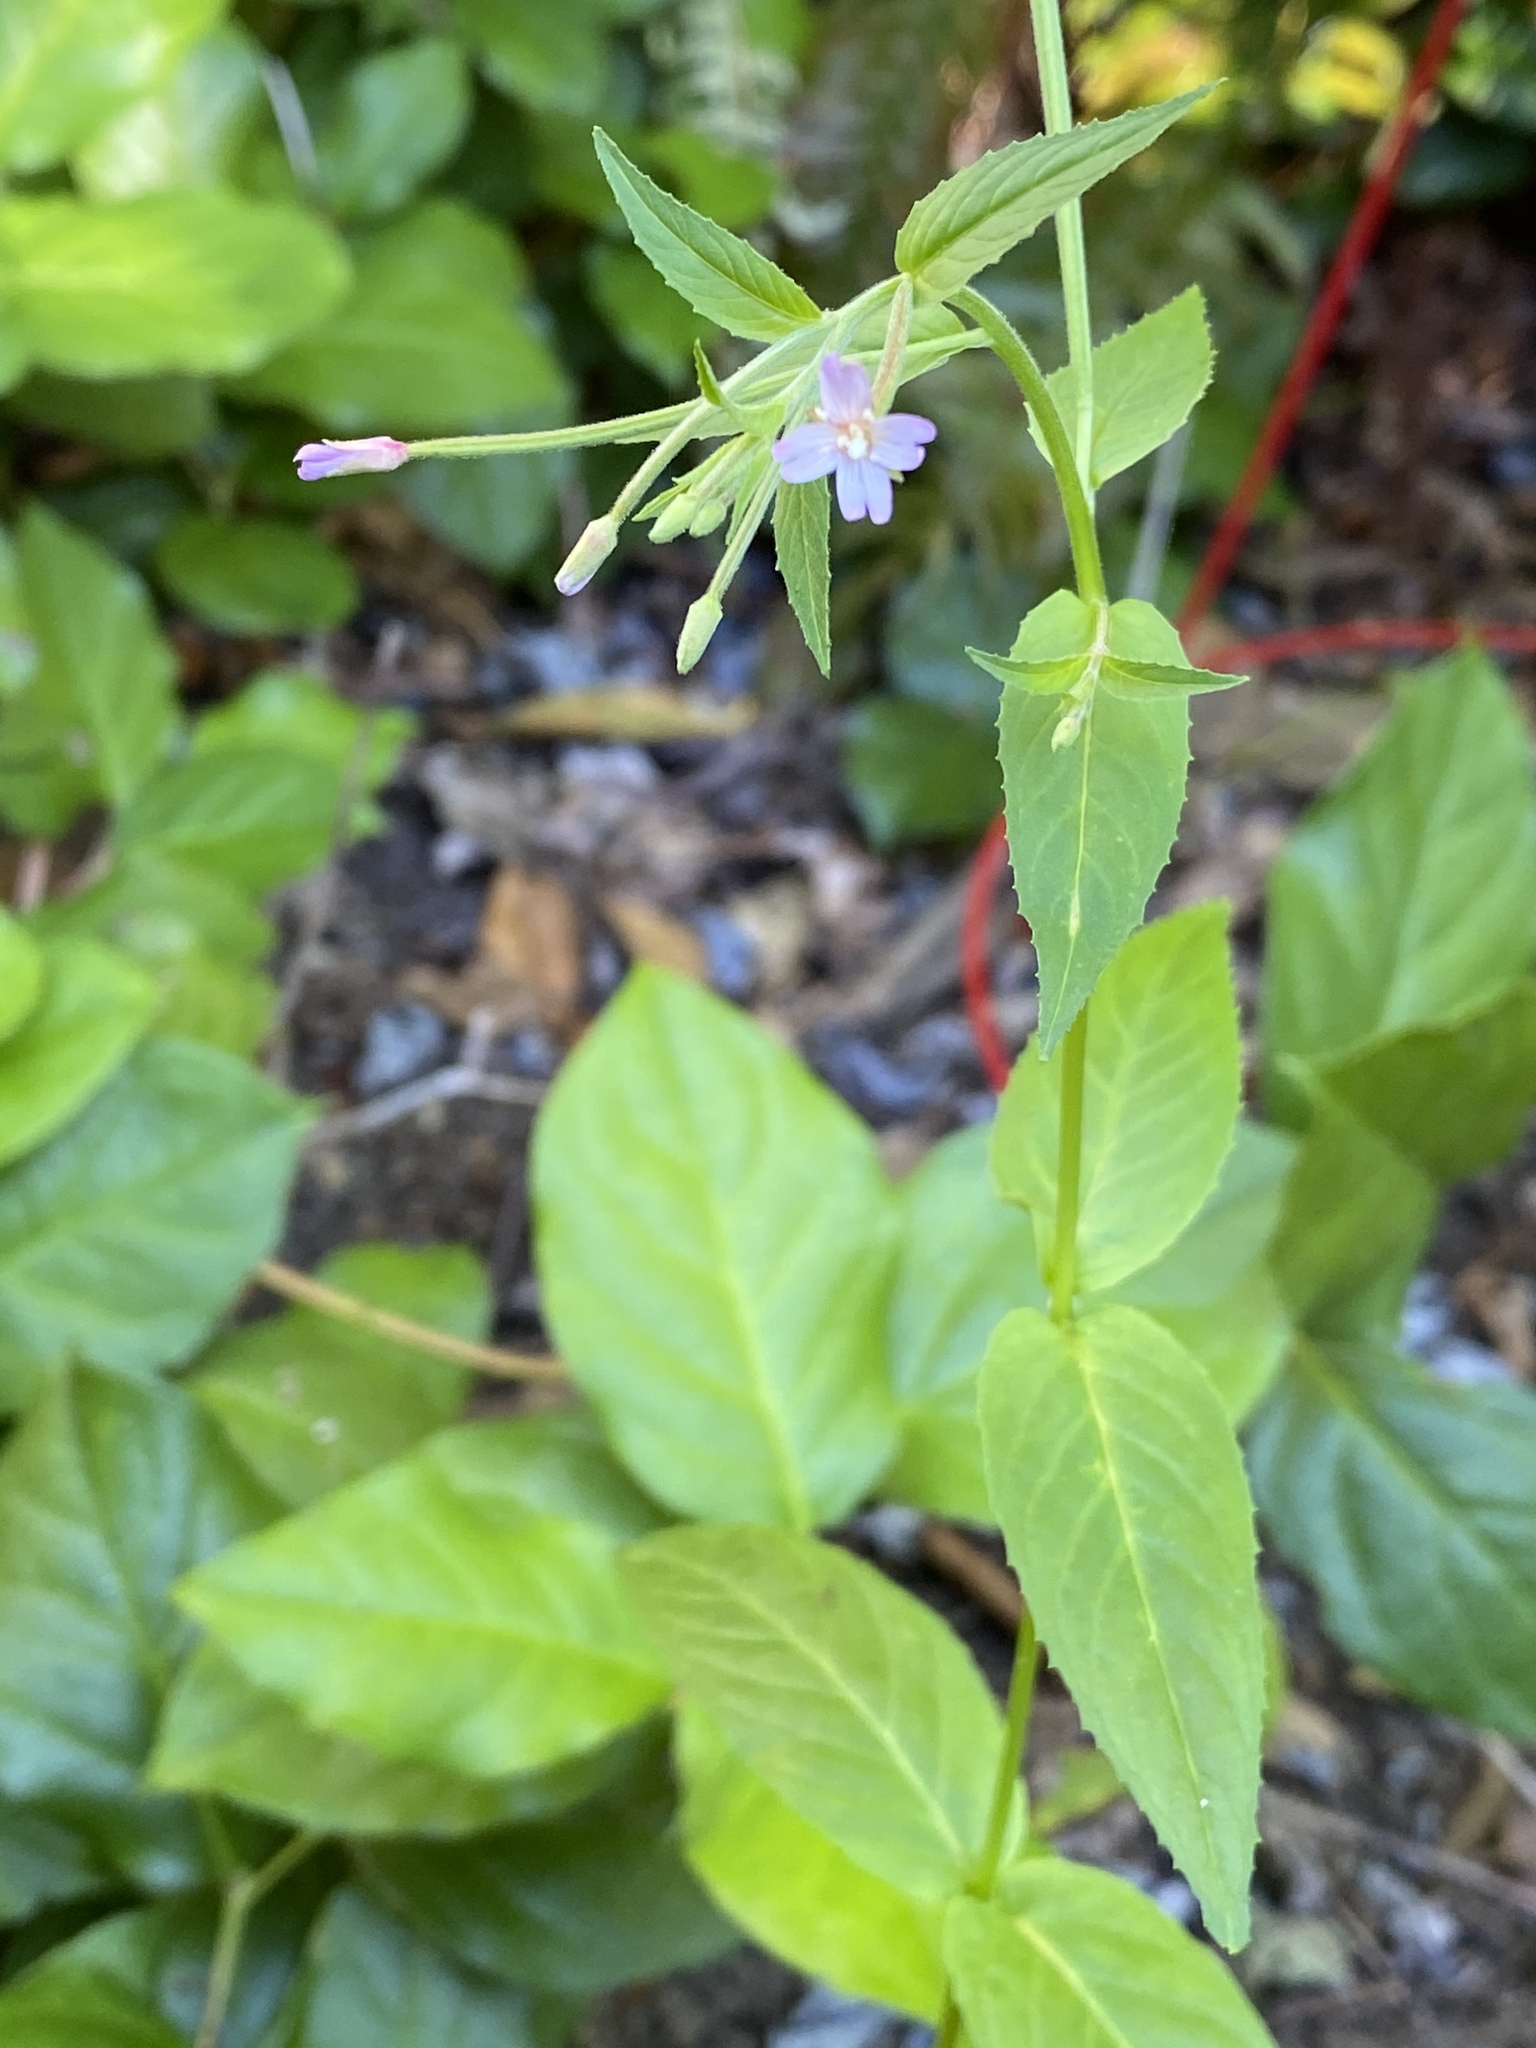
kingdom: Plantae
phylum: Tracheophyta
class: Magnoliopsida
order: Myrtales
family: Onagraceae
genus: Epilobium
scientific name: Epilobium ciliatum
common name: American willowherb
